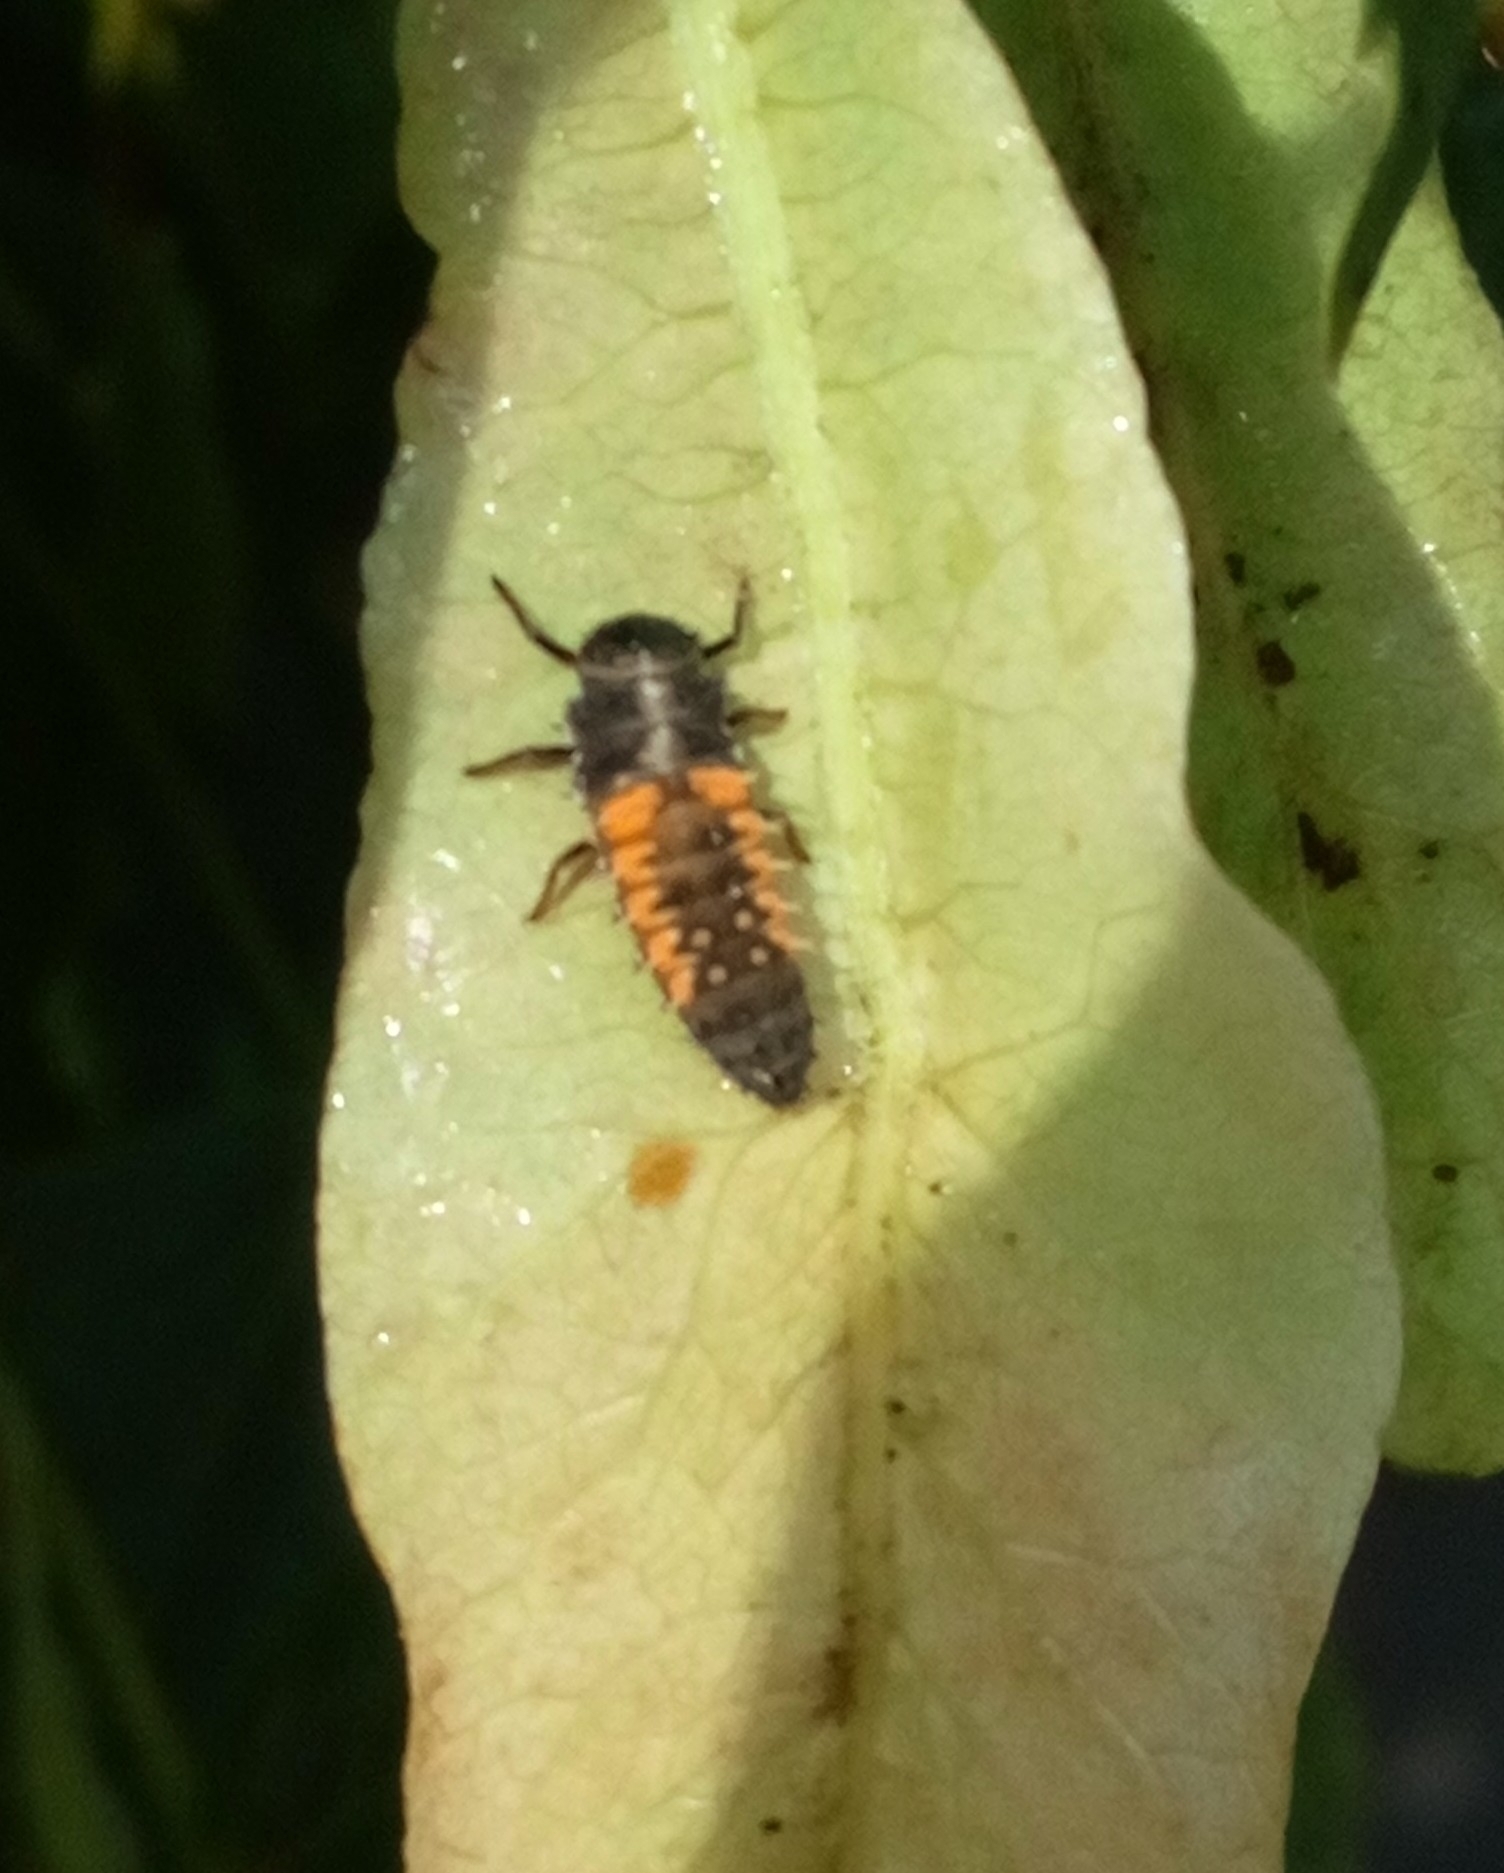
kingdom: Animalia
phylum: Arthropoda
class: Insecta
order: Coleoptera
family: Coccinellidae
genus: Harmonia
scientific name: Harmonia axyridis
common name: Harlequin ladybird
